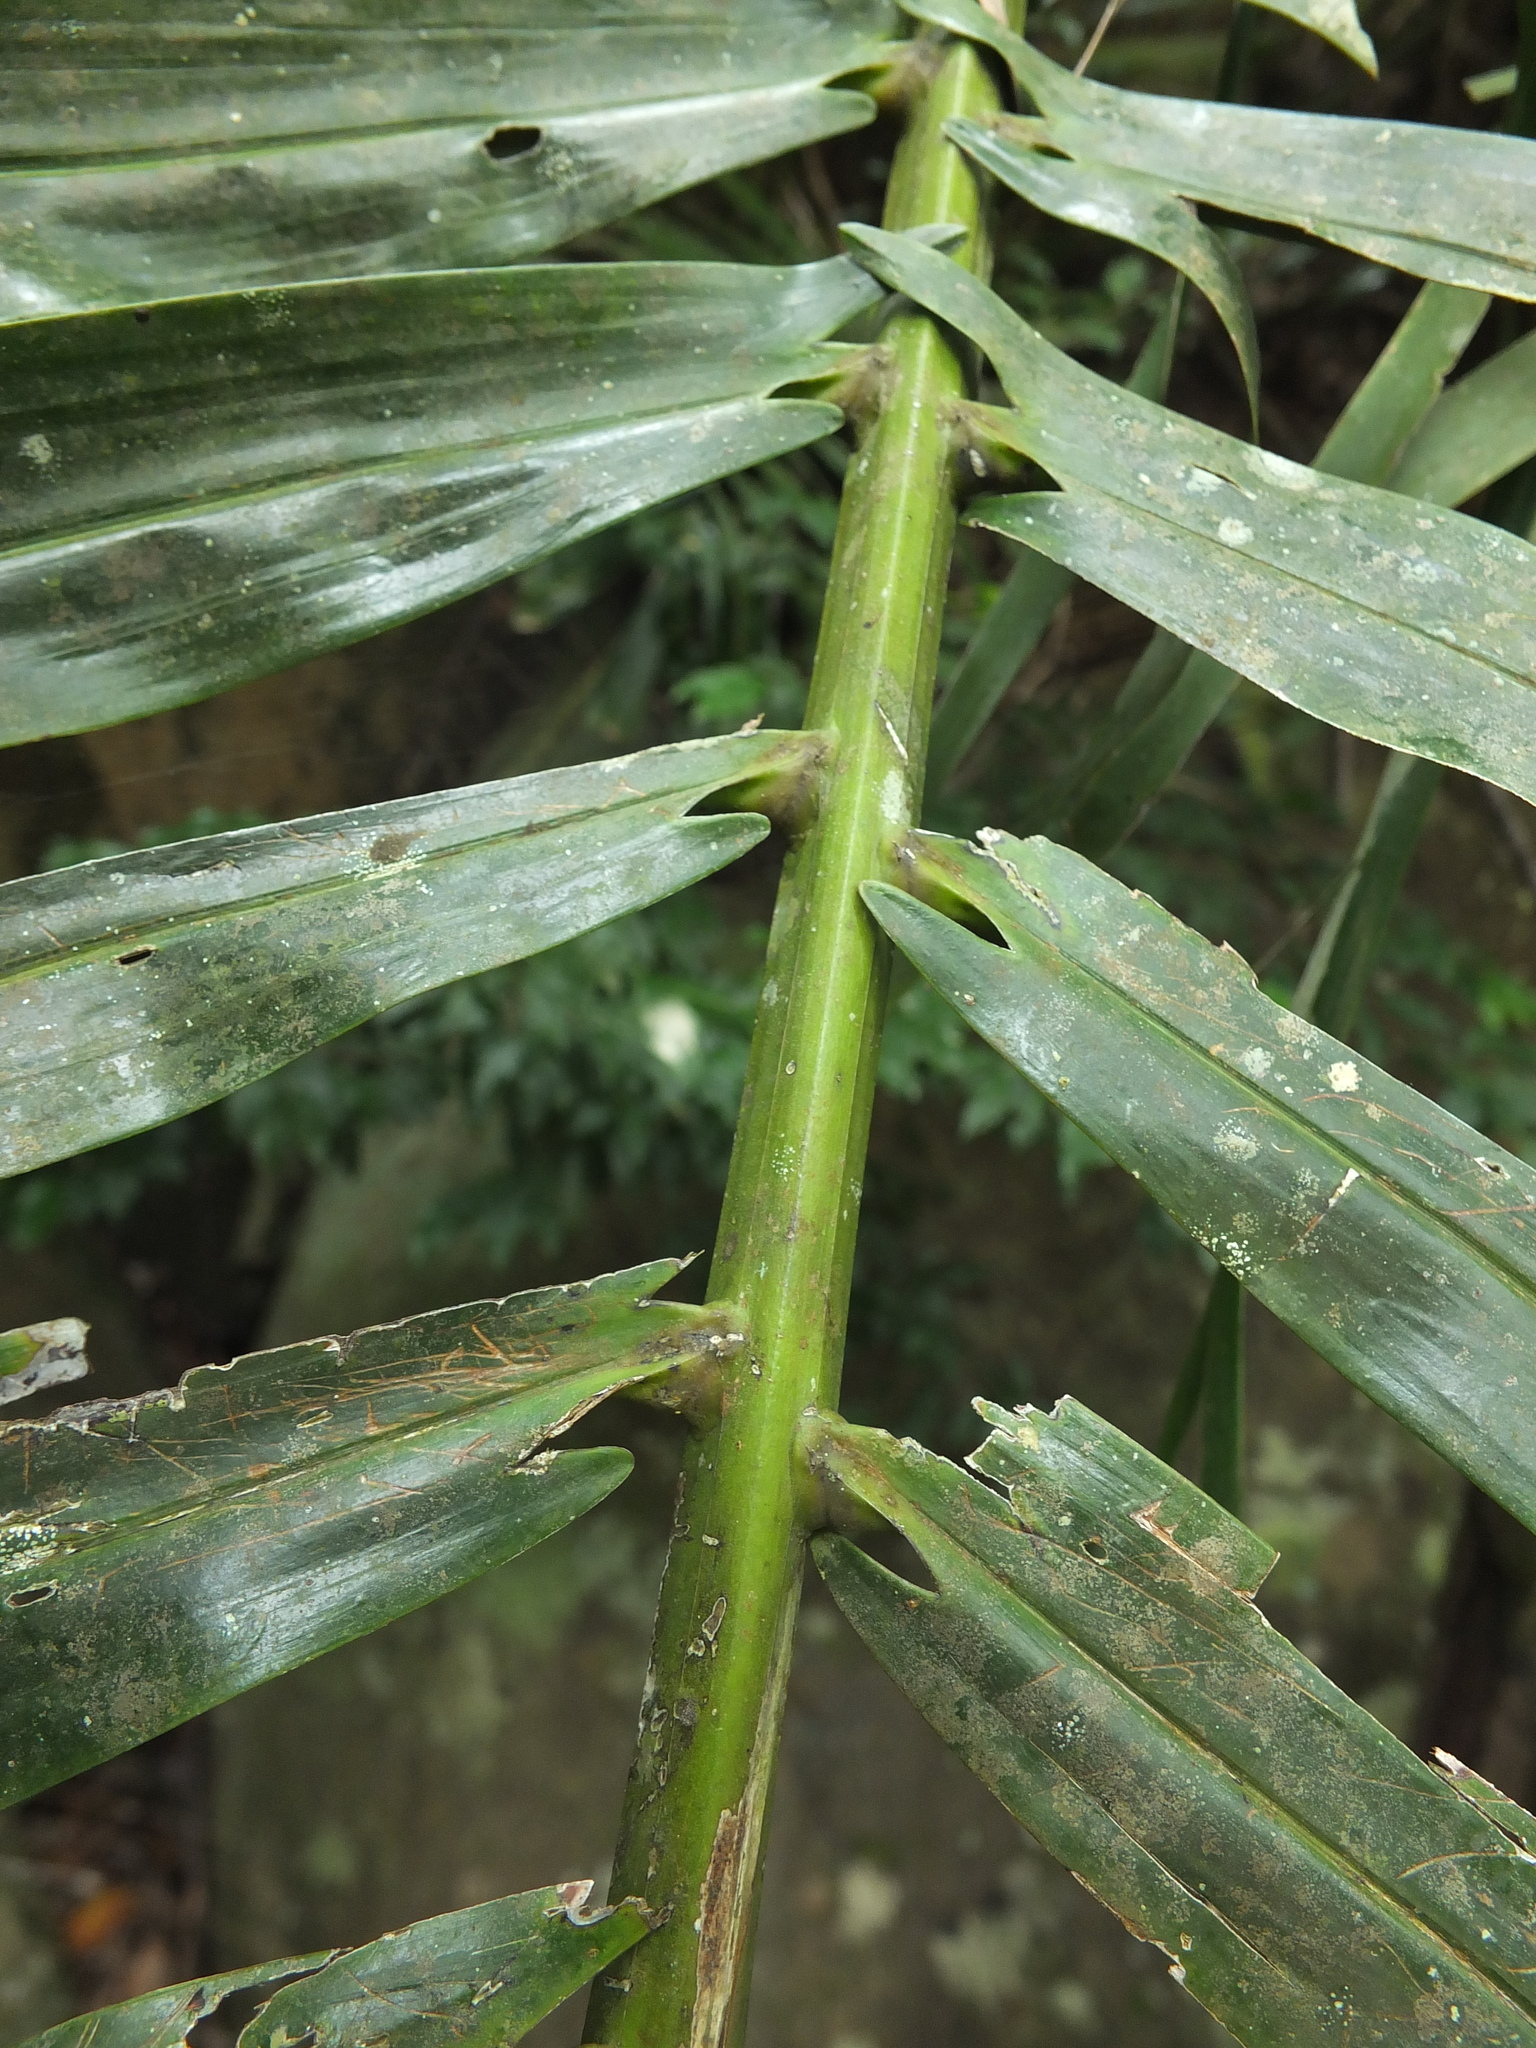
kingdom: Plantae
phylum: Tracheophyta
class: Liliopsida
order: Arecales
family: Arecaceae
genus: Arenga
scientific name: Arenga wightii
